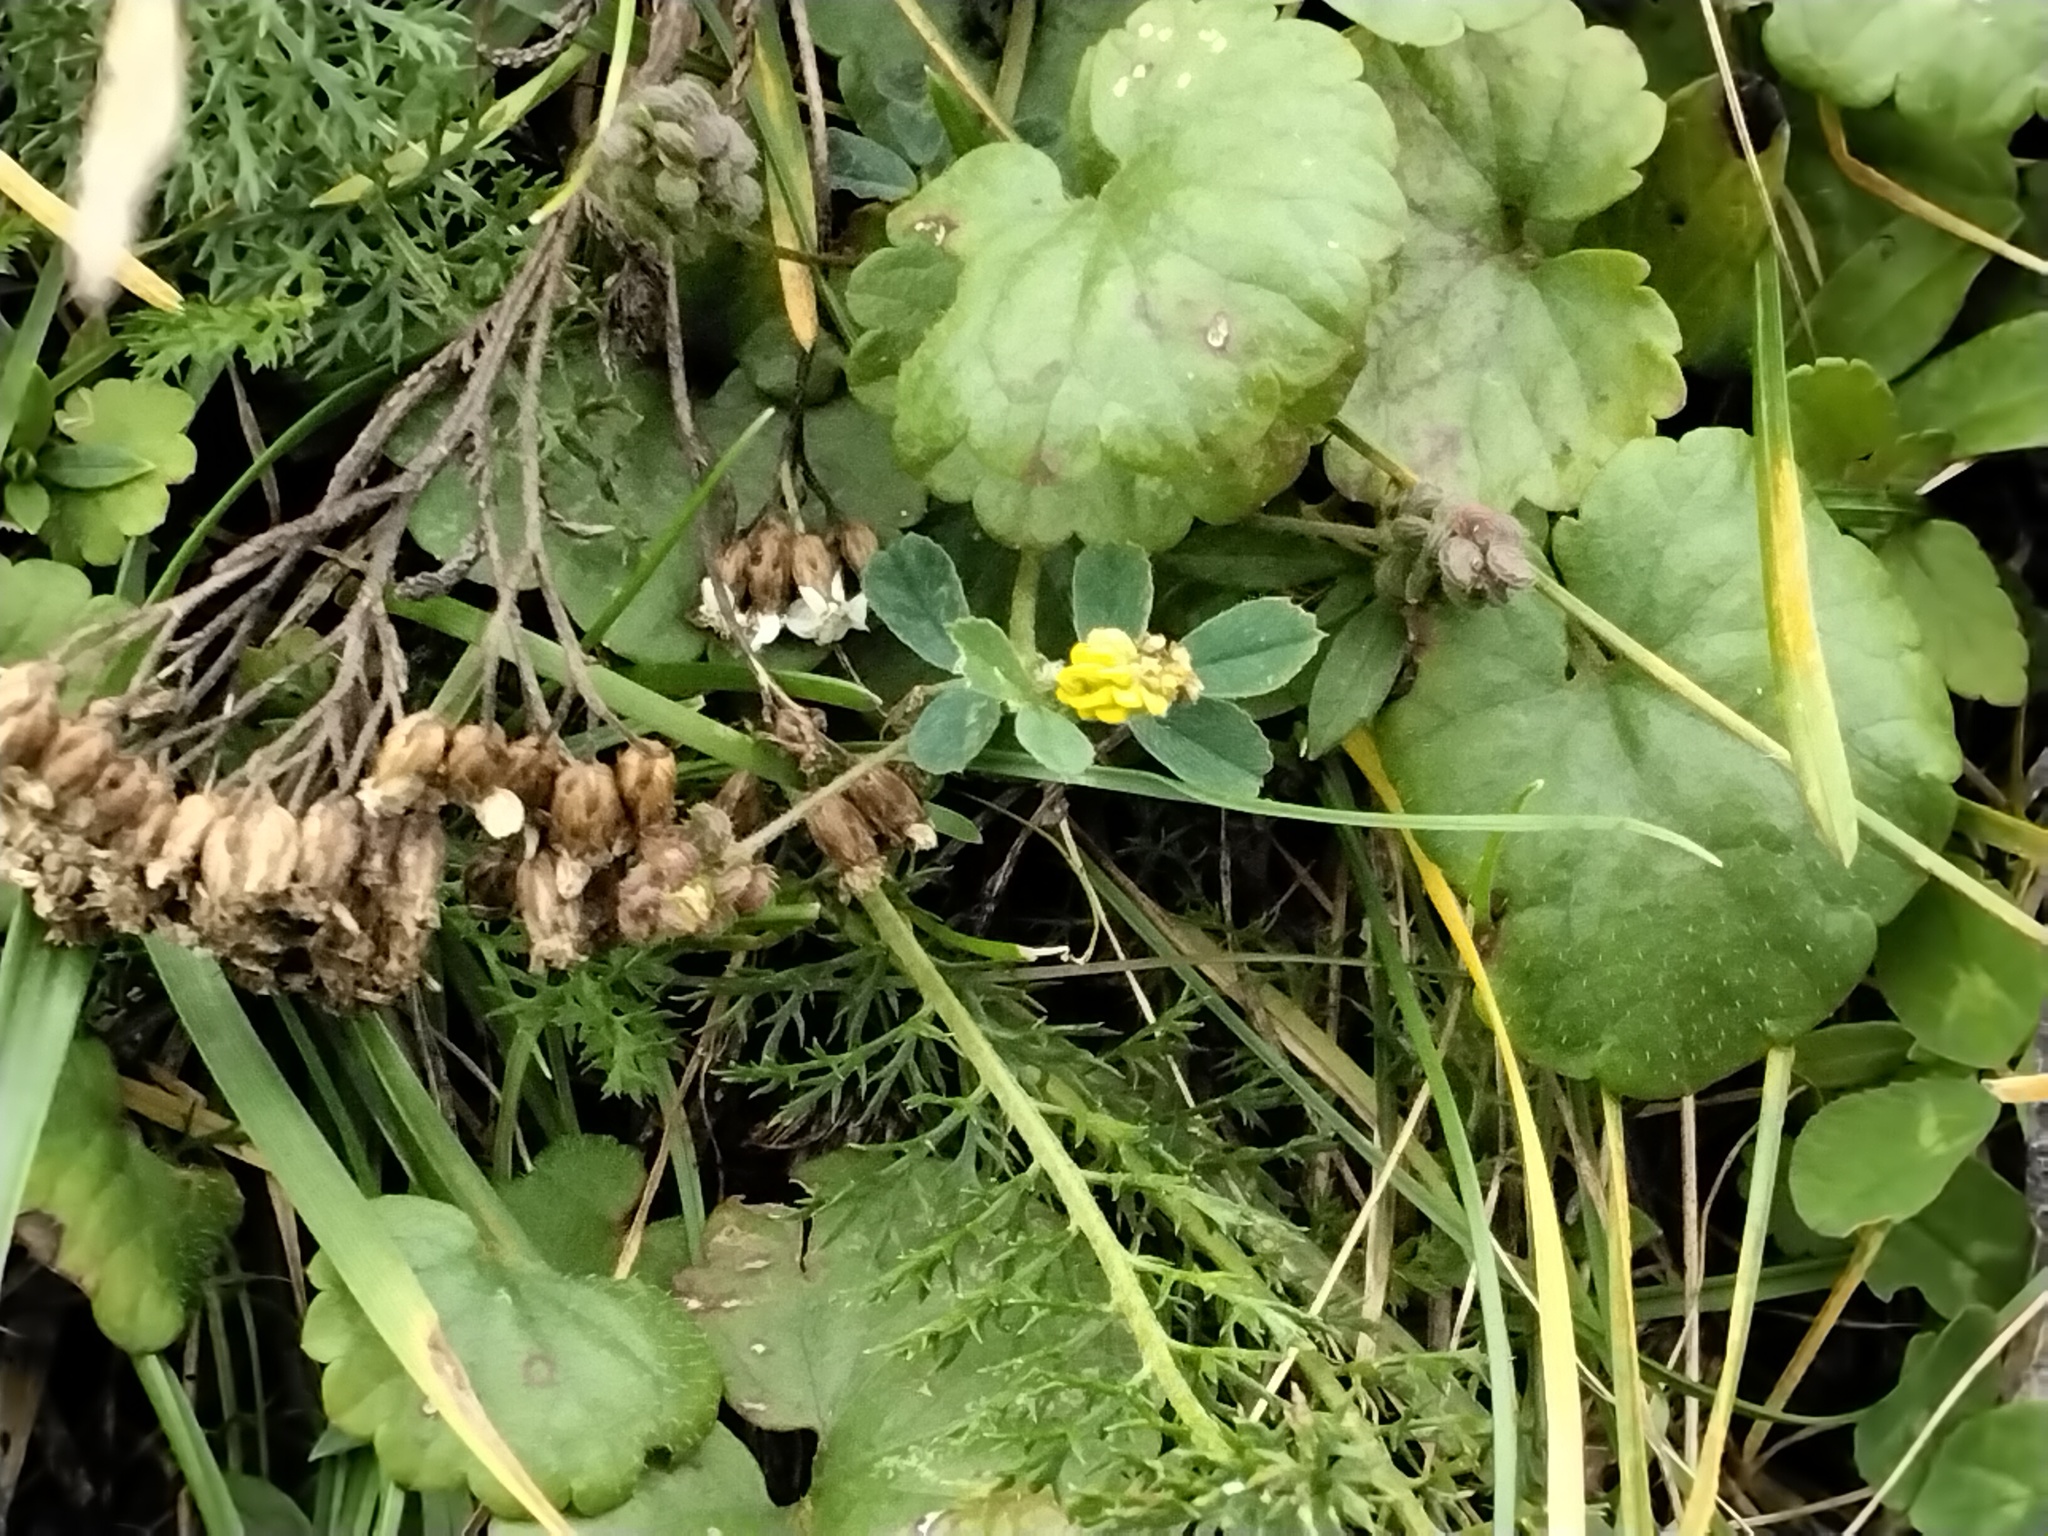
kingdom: Plantae
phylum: Tracheophyta
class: Magnoliopsida
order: Fabales
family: Fabaceae
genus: Medicago
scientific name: Medicago lupulina
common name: Black medick
